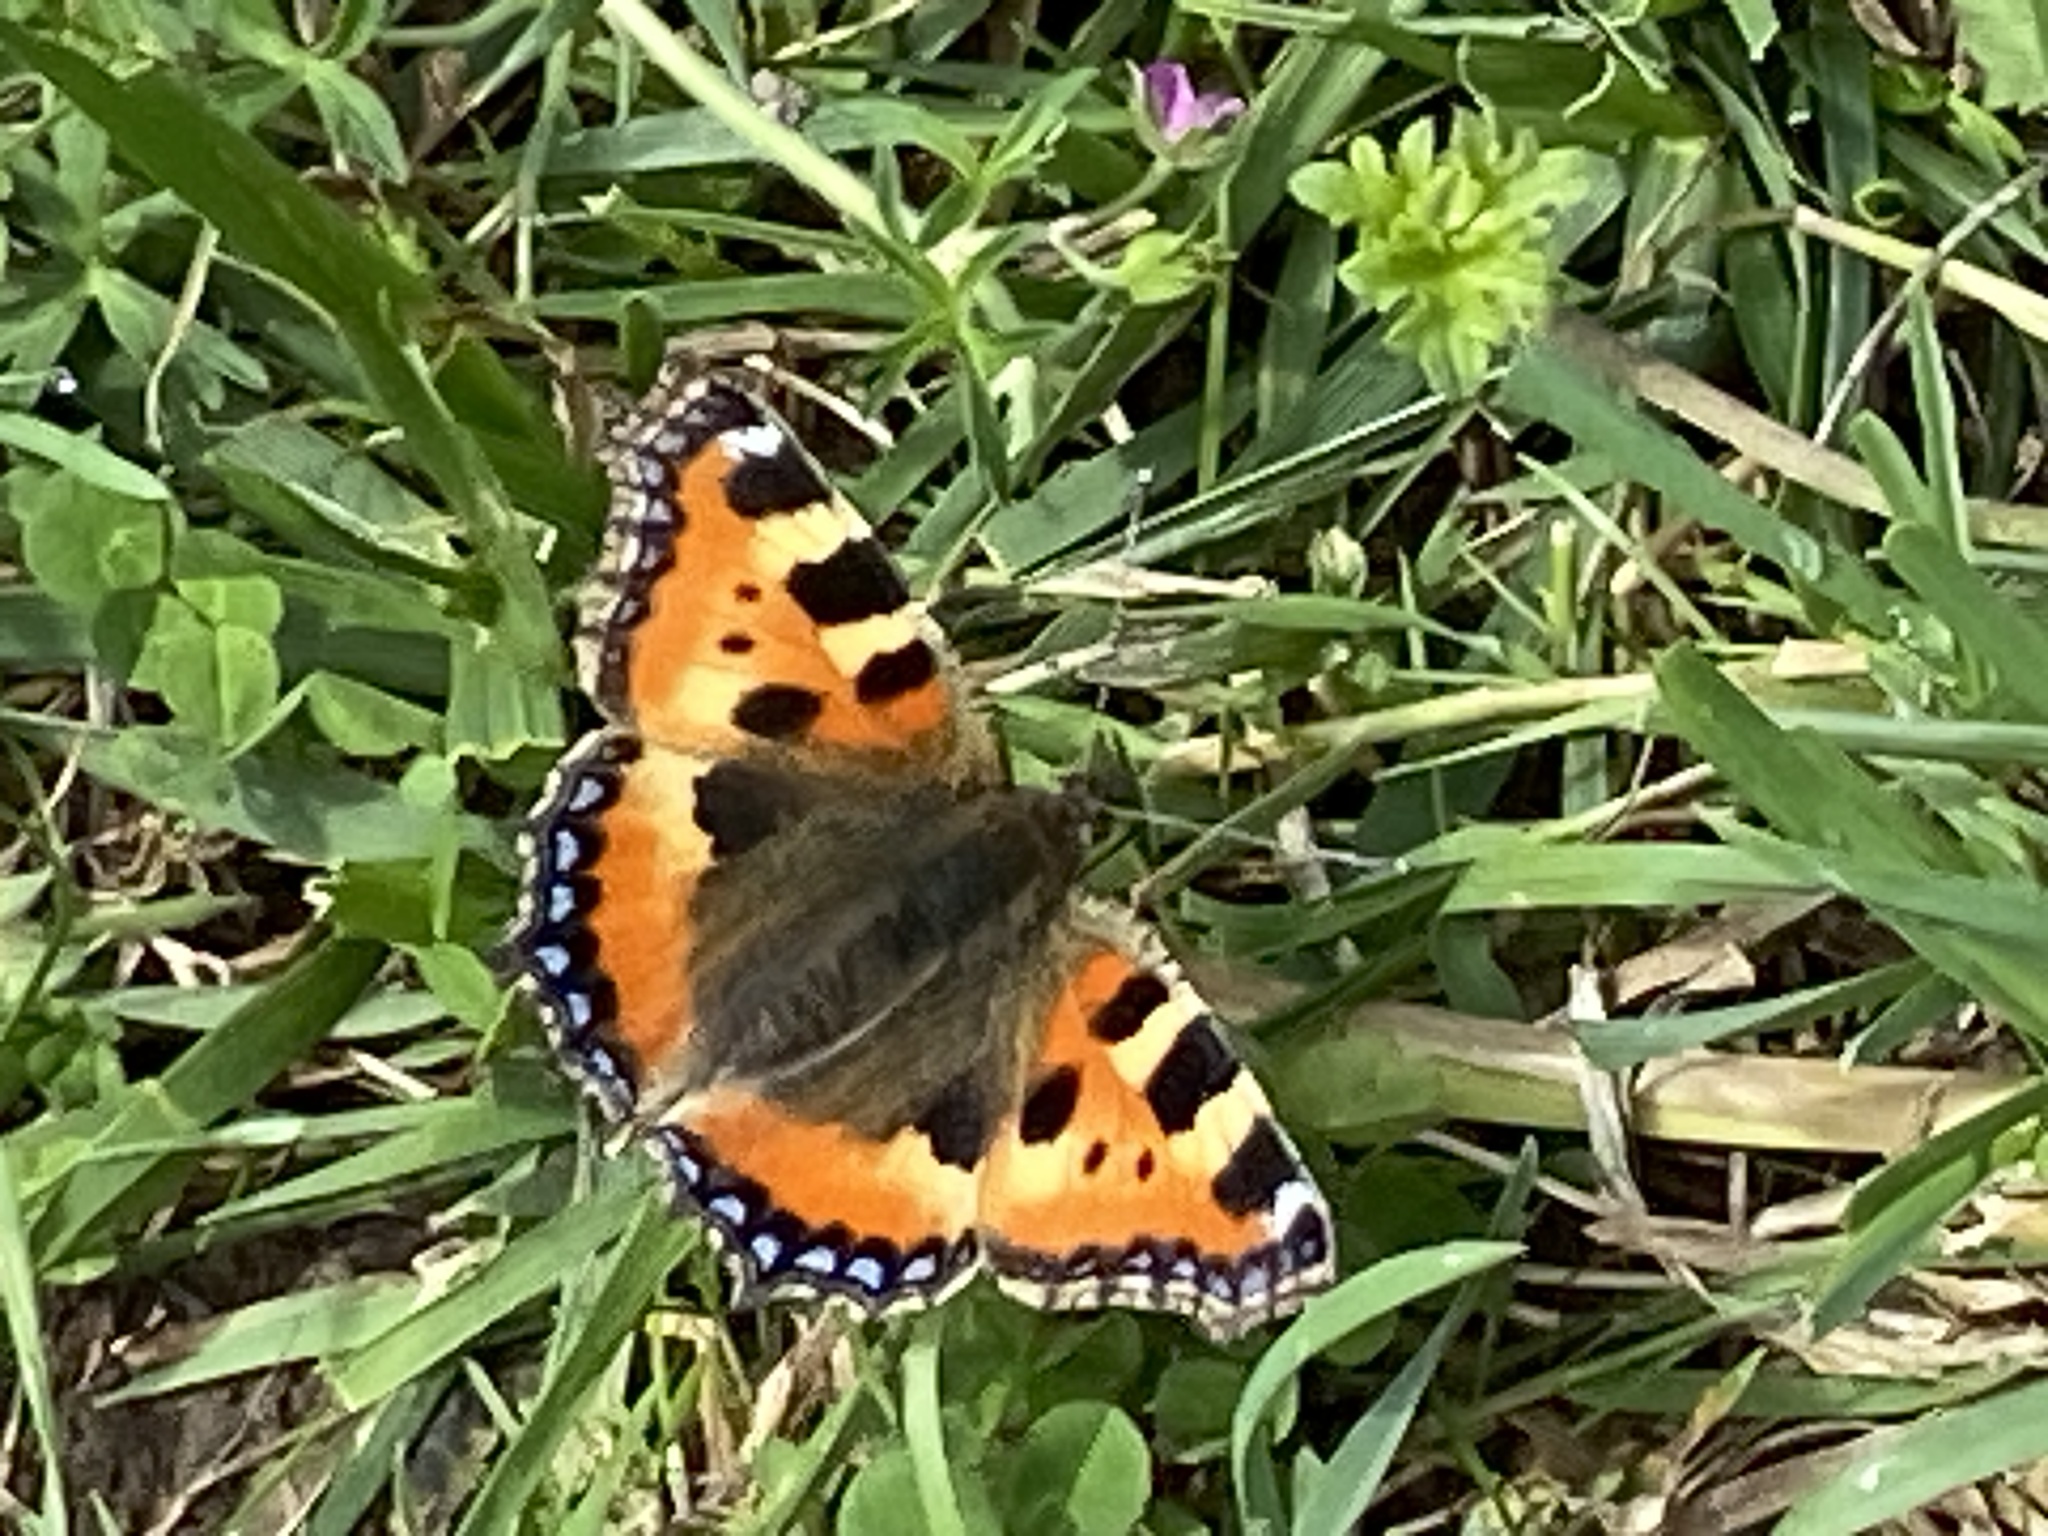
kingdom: Animalia
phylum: Arthropoda
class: Insecta
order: Lepidoptera
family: Nymphalidae
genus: Aglais
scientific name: Aglais urticae
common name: Small tortoiseshell
